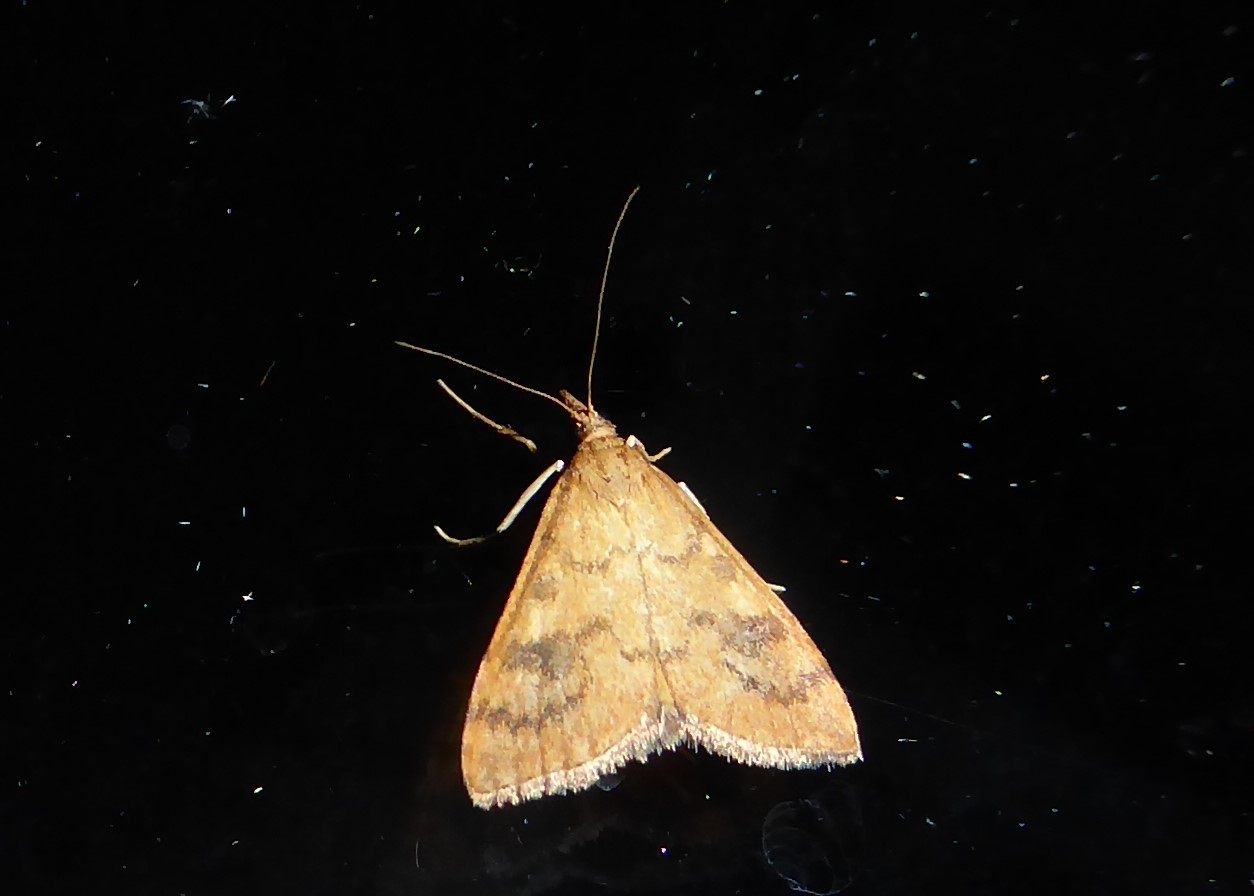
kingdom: Animalia
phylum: Arthropoda
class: Insecta
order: Lepidoptera
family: Crambidae
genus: Udea
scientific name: Udea Mnesictena flavidalis
